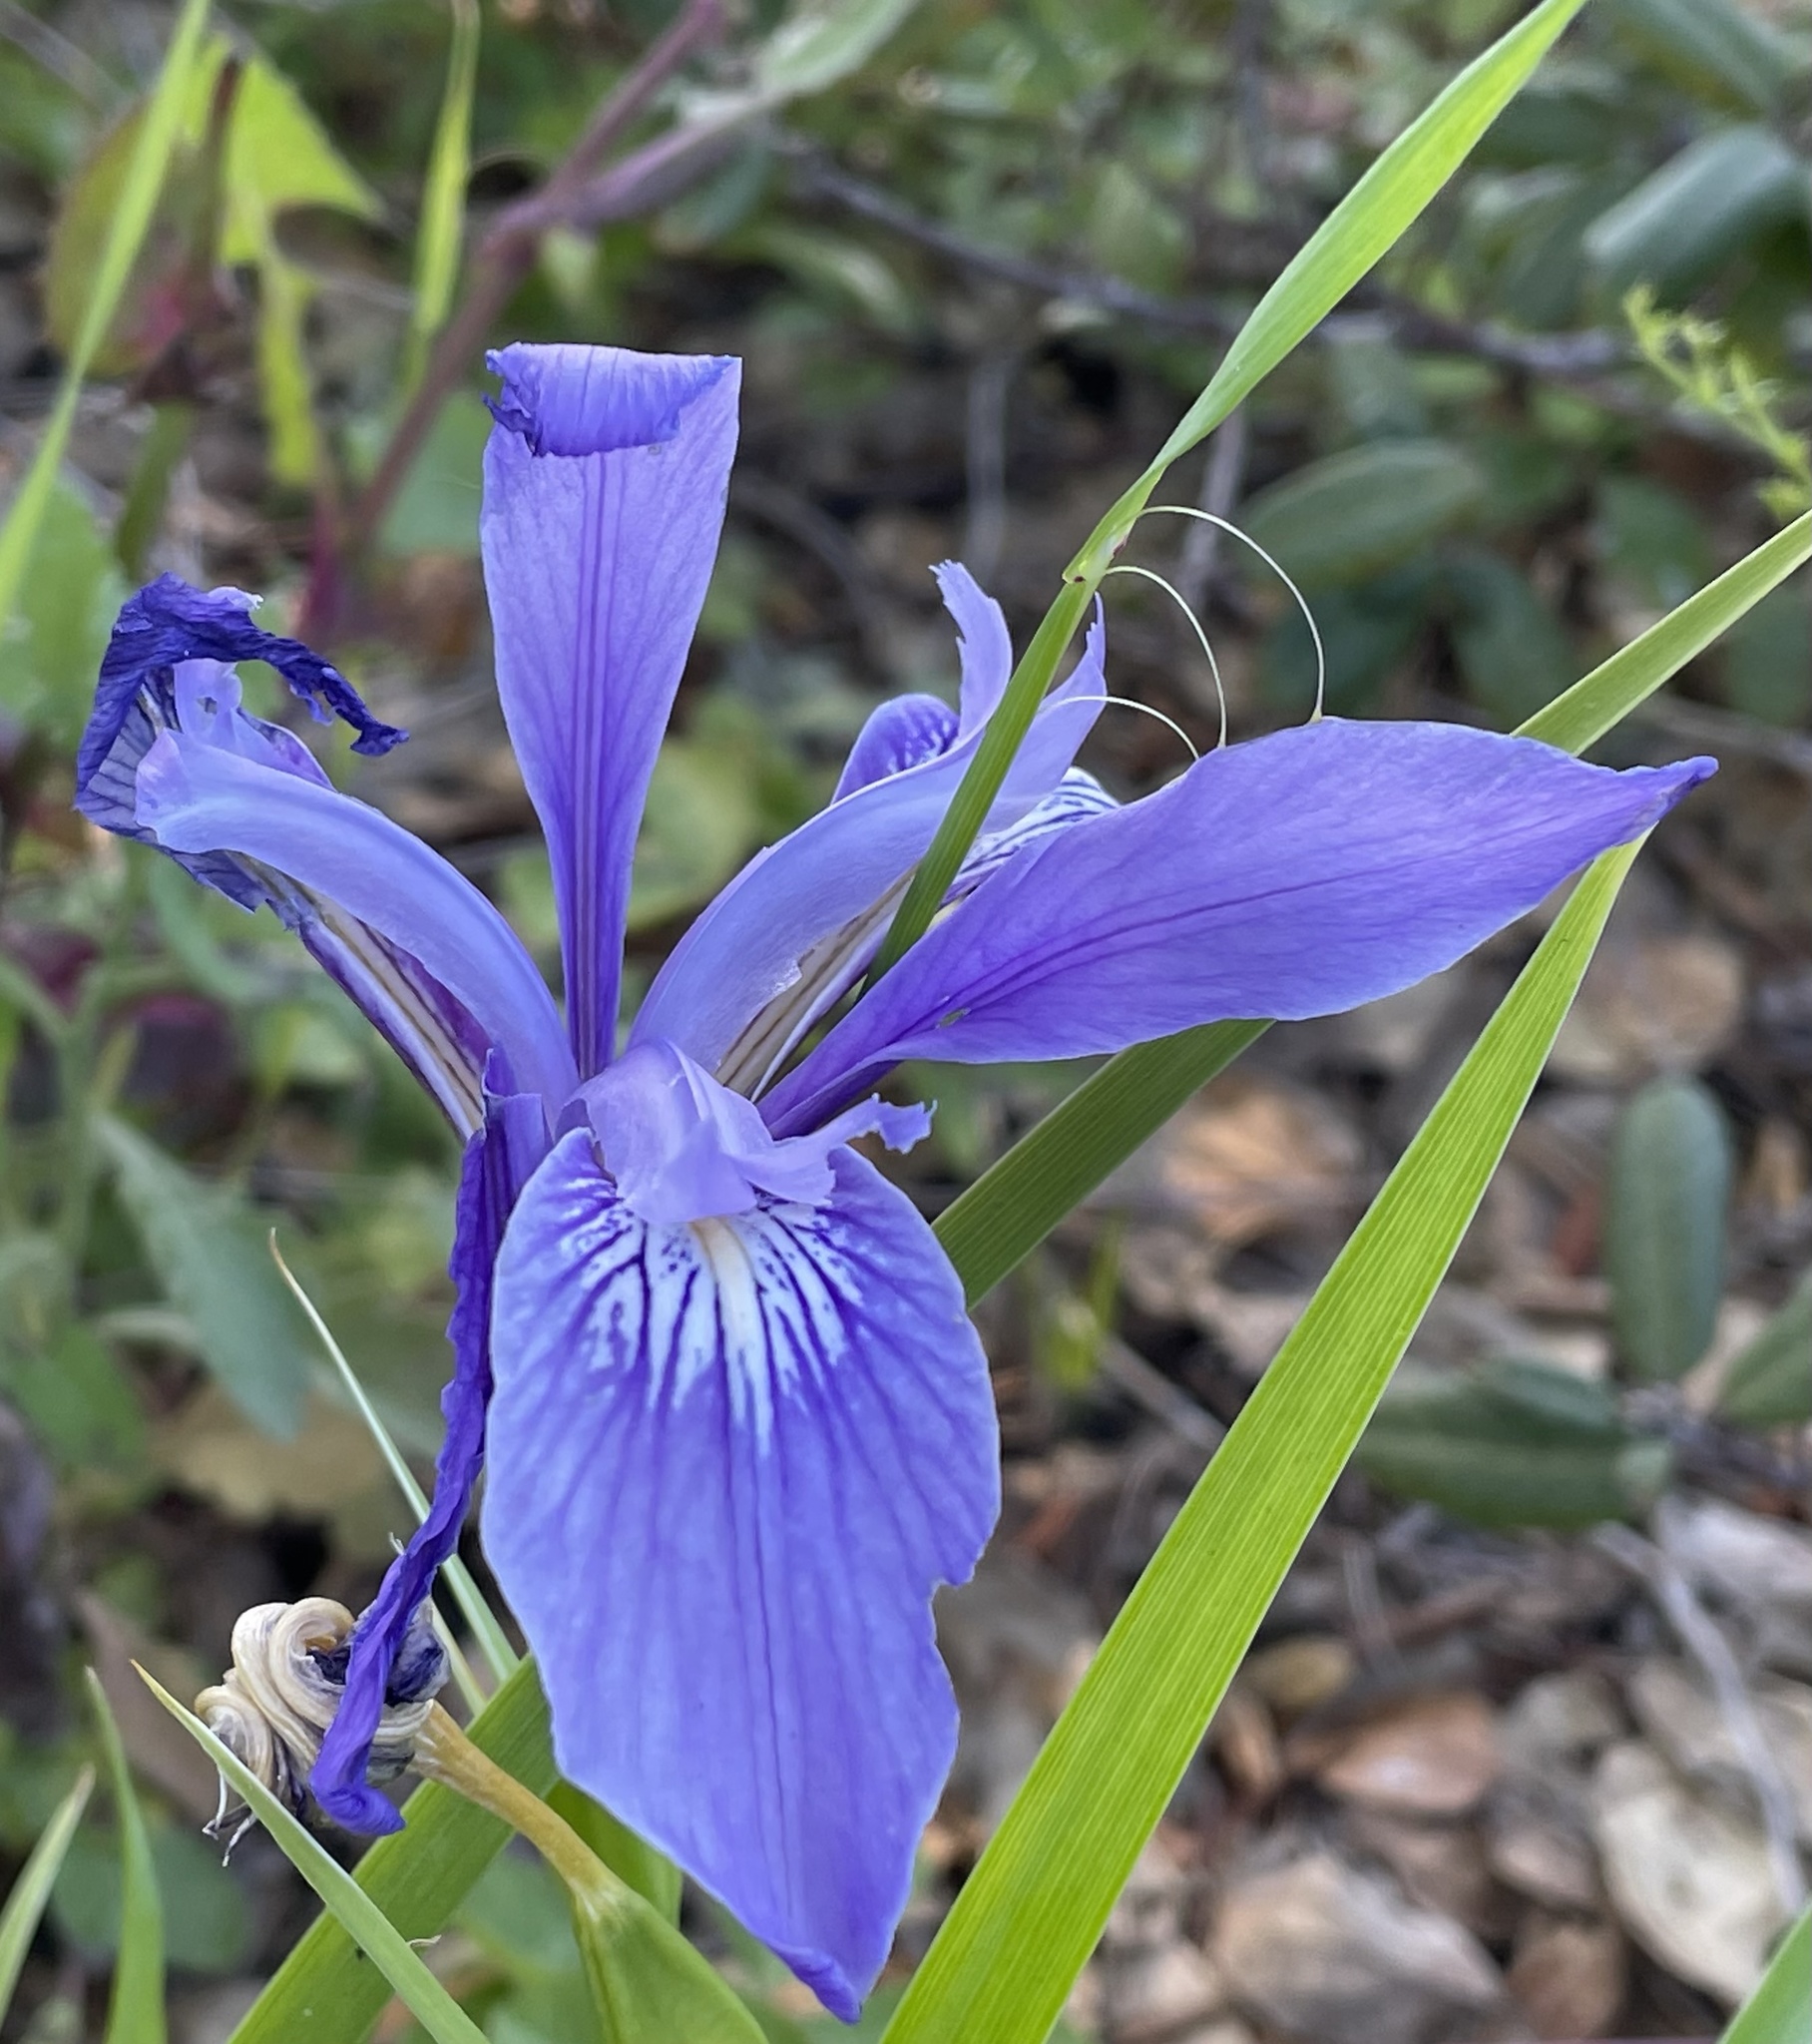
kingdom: Plantae
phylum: Tracheophyta
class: Liliopsida
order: Asparagales
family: Iridaceae
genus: Iris
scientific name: Iris douglasiana
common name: Marin iris
